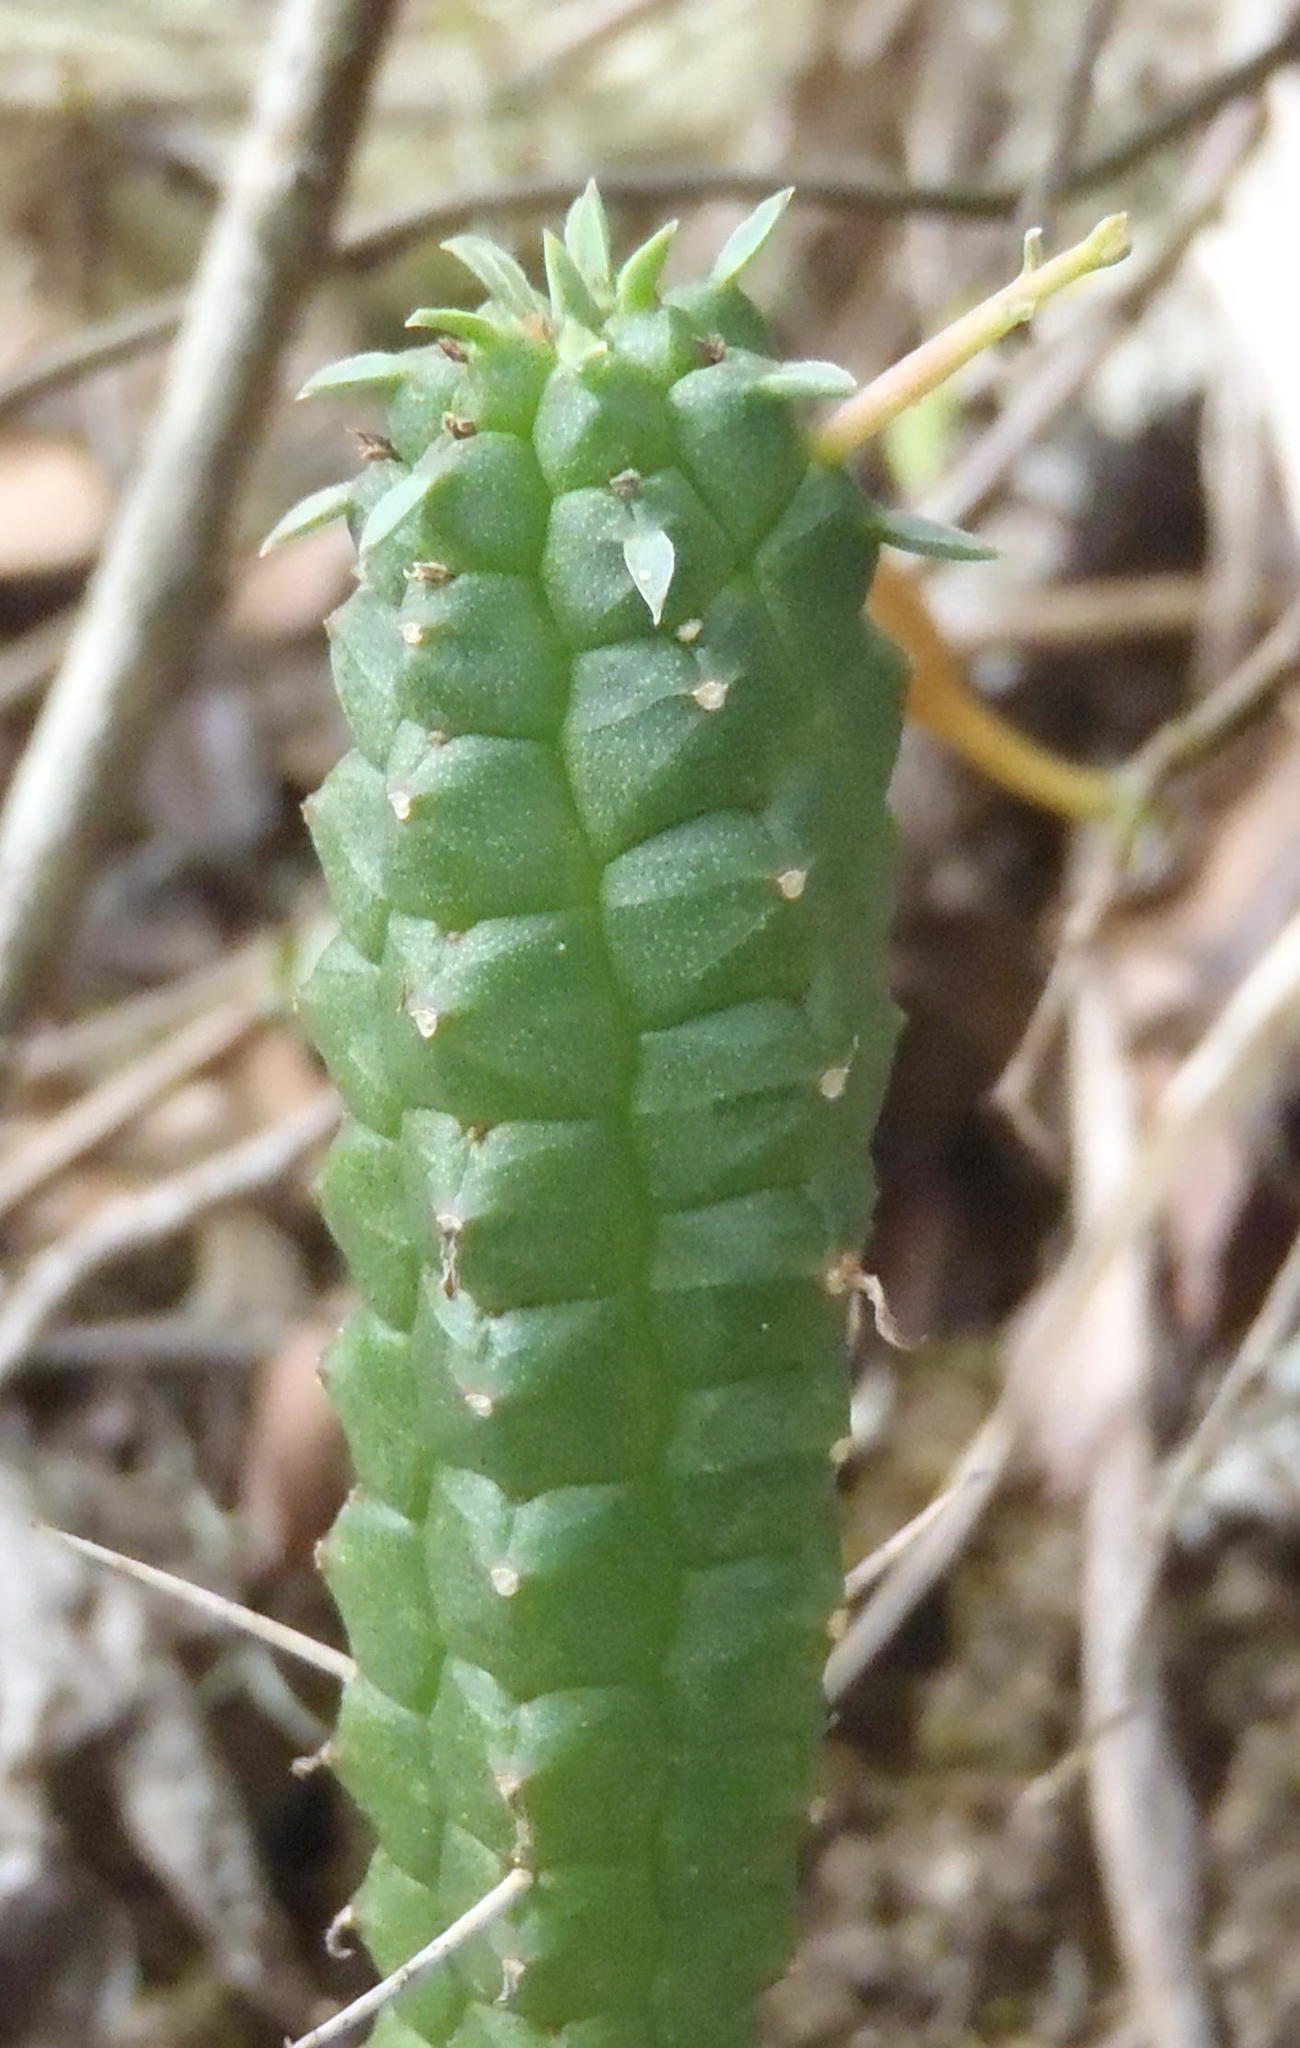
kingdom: Plantae
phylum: Tracheophyta
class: Magnoliopsida
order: Malpighiales
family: Euphorbiaceae
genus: Euphorbia
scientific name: Euphorbia mammillaris
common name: Corkscrew
